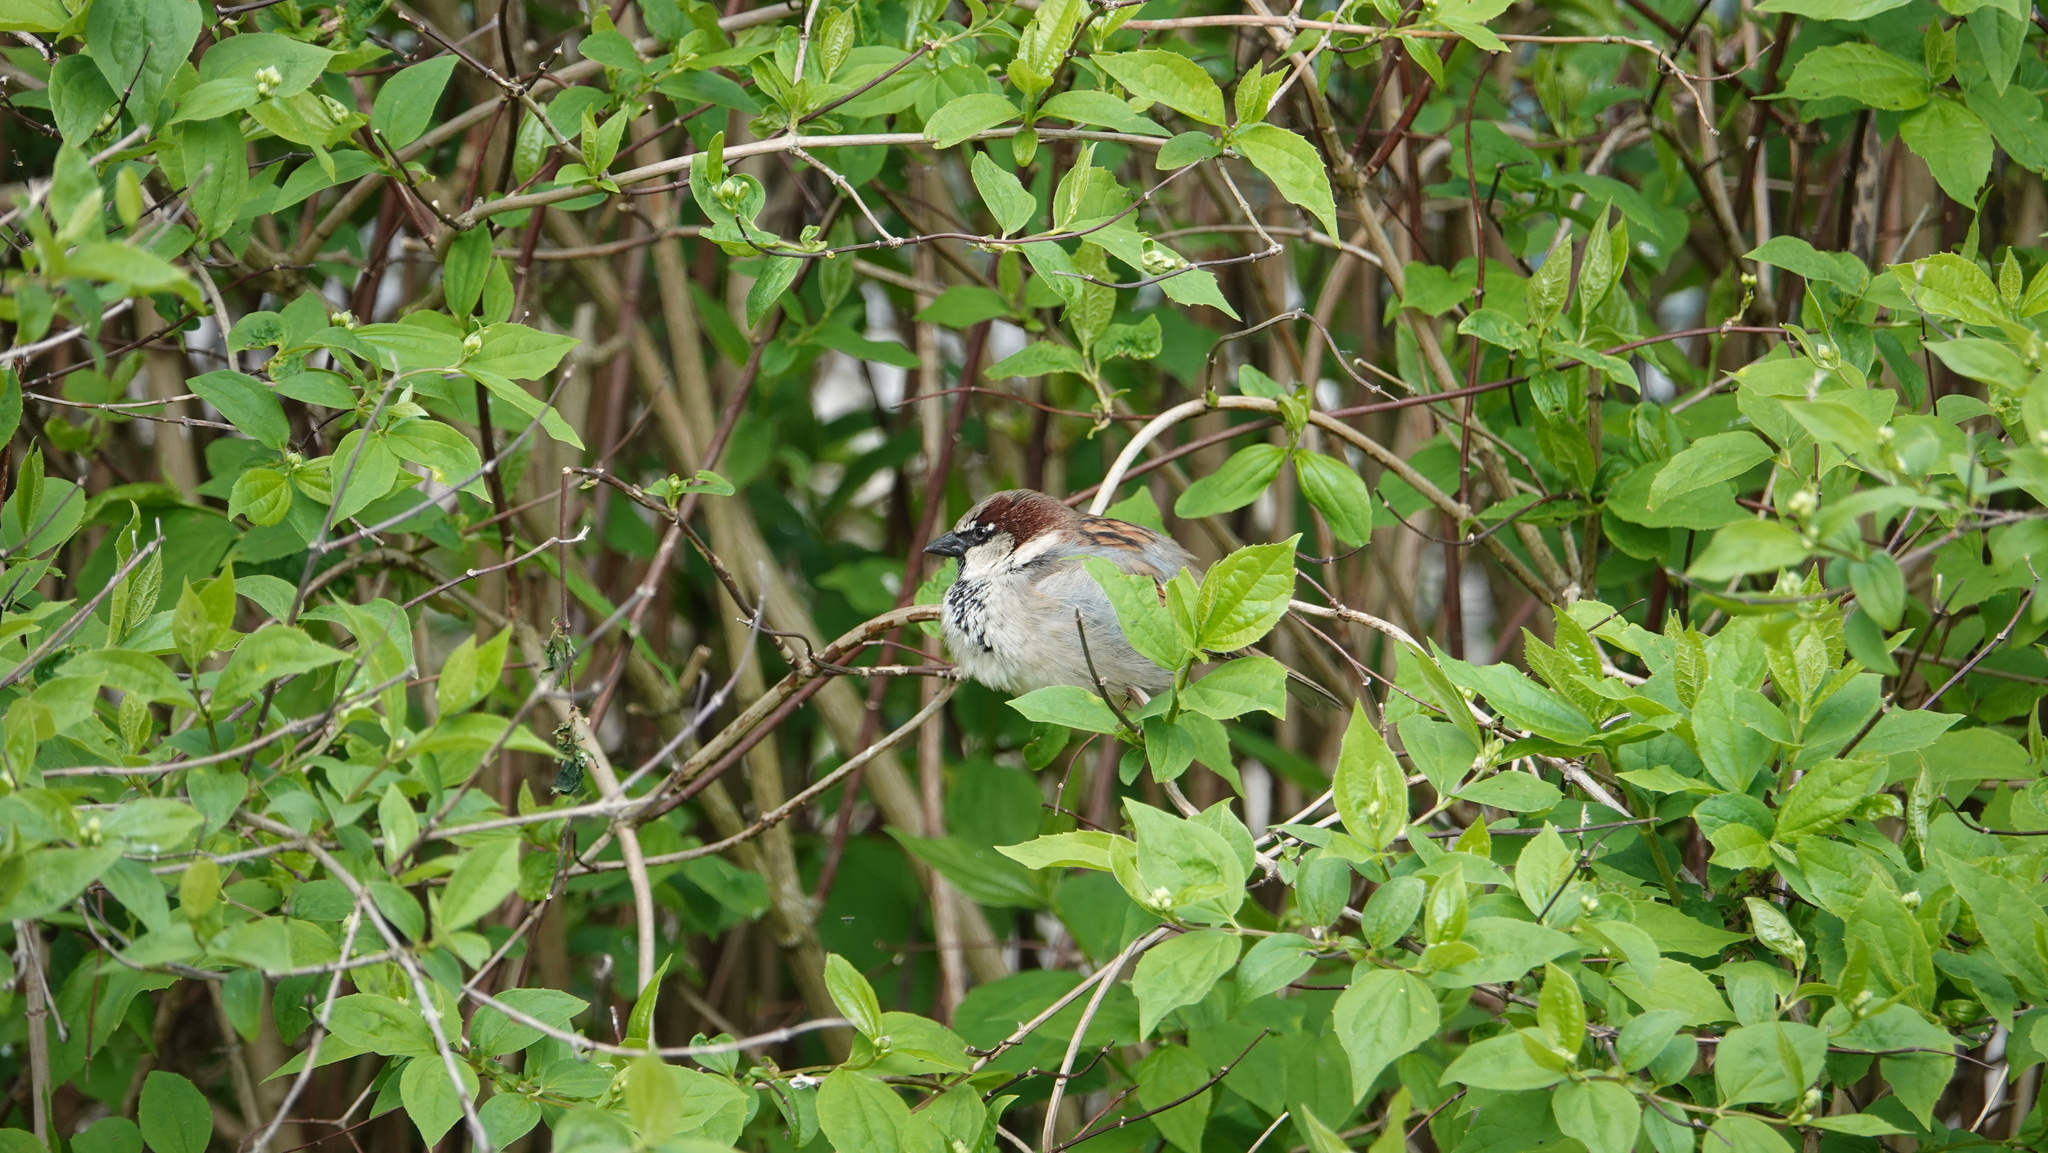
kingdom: Animalia
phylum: Chordata
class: Aves
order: Passeriformes
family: Passeridae
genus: Passer
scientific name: Passer domesticus
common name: House sparrow
